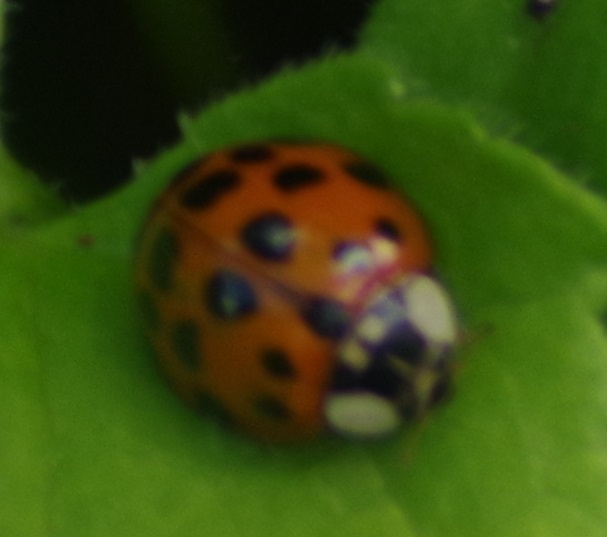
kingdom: Animalia
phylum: Arthropoda
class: Insecta
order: Coleoptera
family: Coccinellidae
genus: Harmonia
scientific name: Harmonia axyridis
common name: Harlequin ladybird
